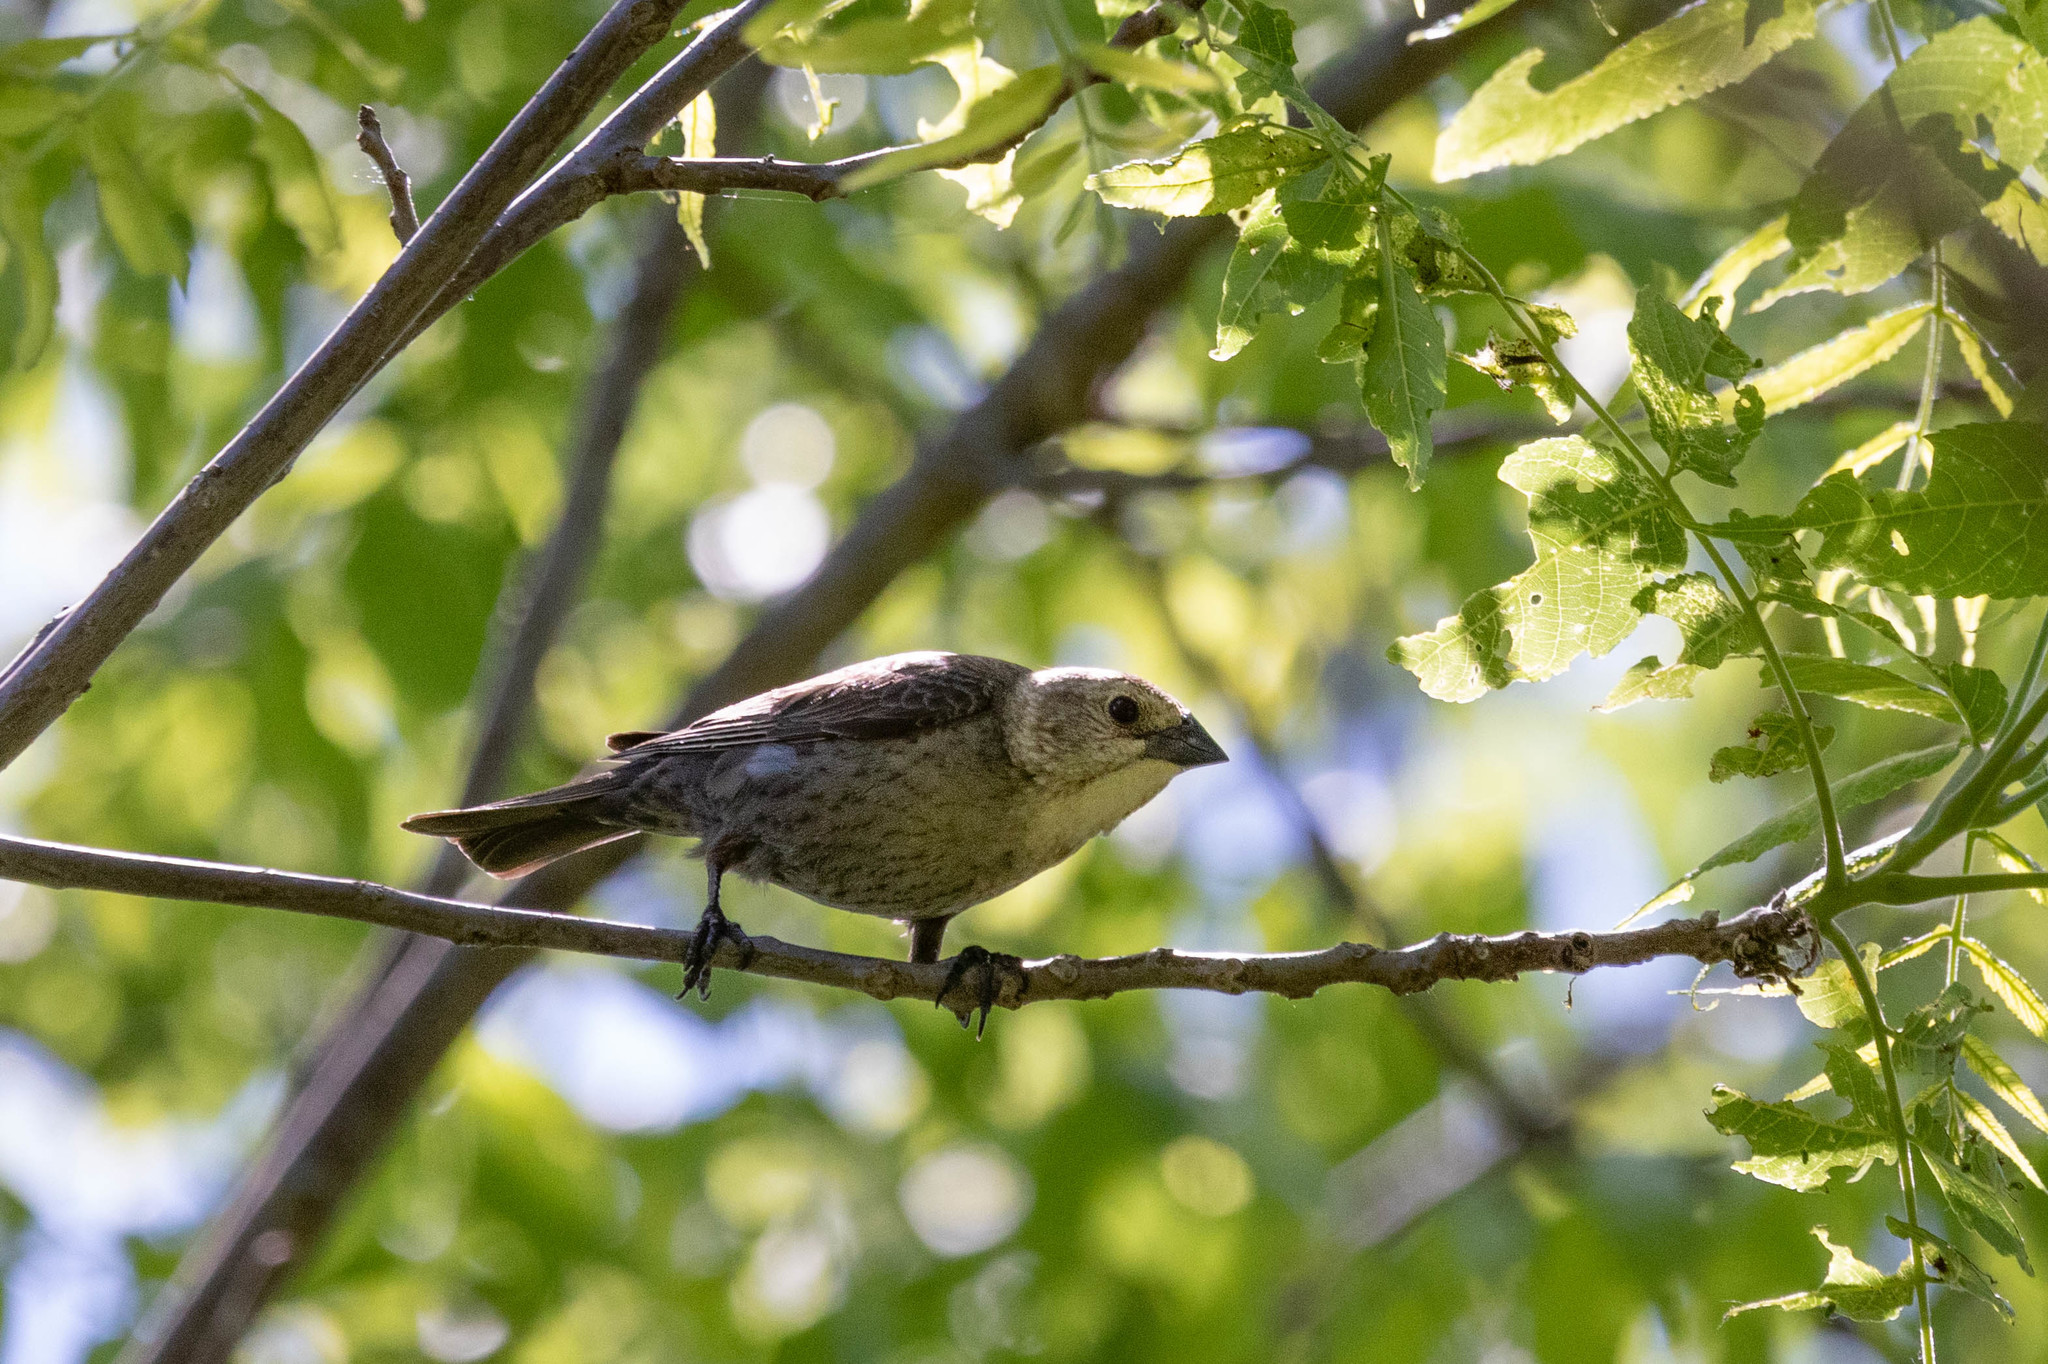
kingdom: Animalia
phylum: Chordata
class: Aves
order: Passeriformes
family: Icteridae
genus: Molothrus
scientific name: Molothrus ater
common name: Brown-headed cowbird
